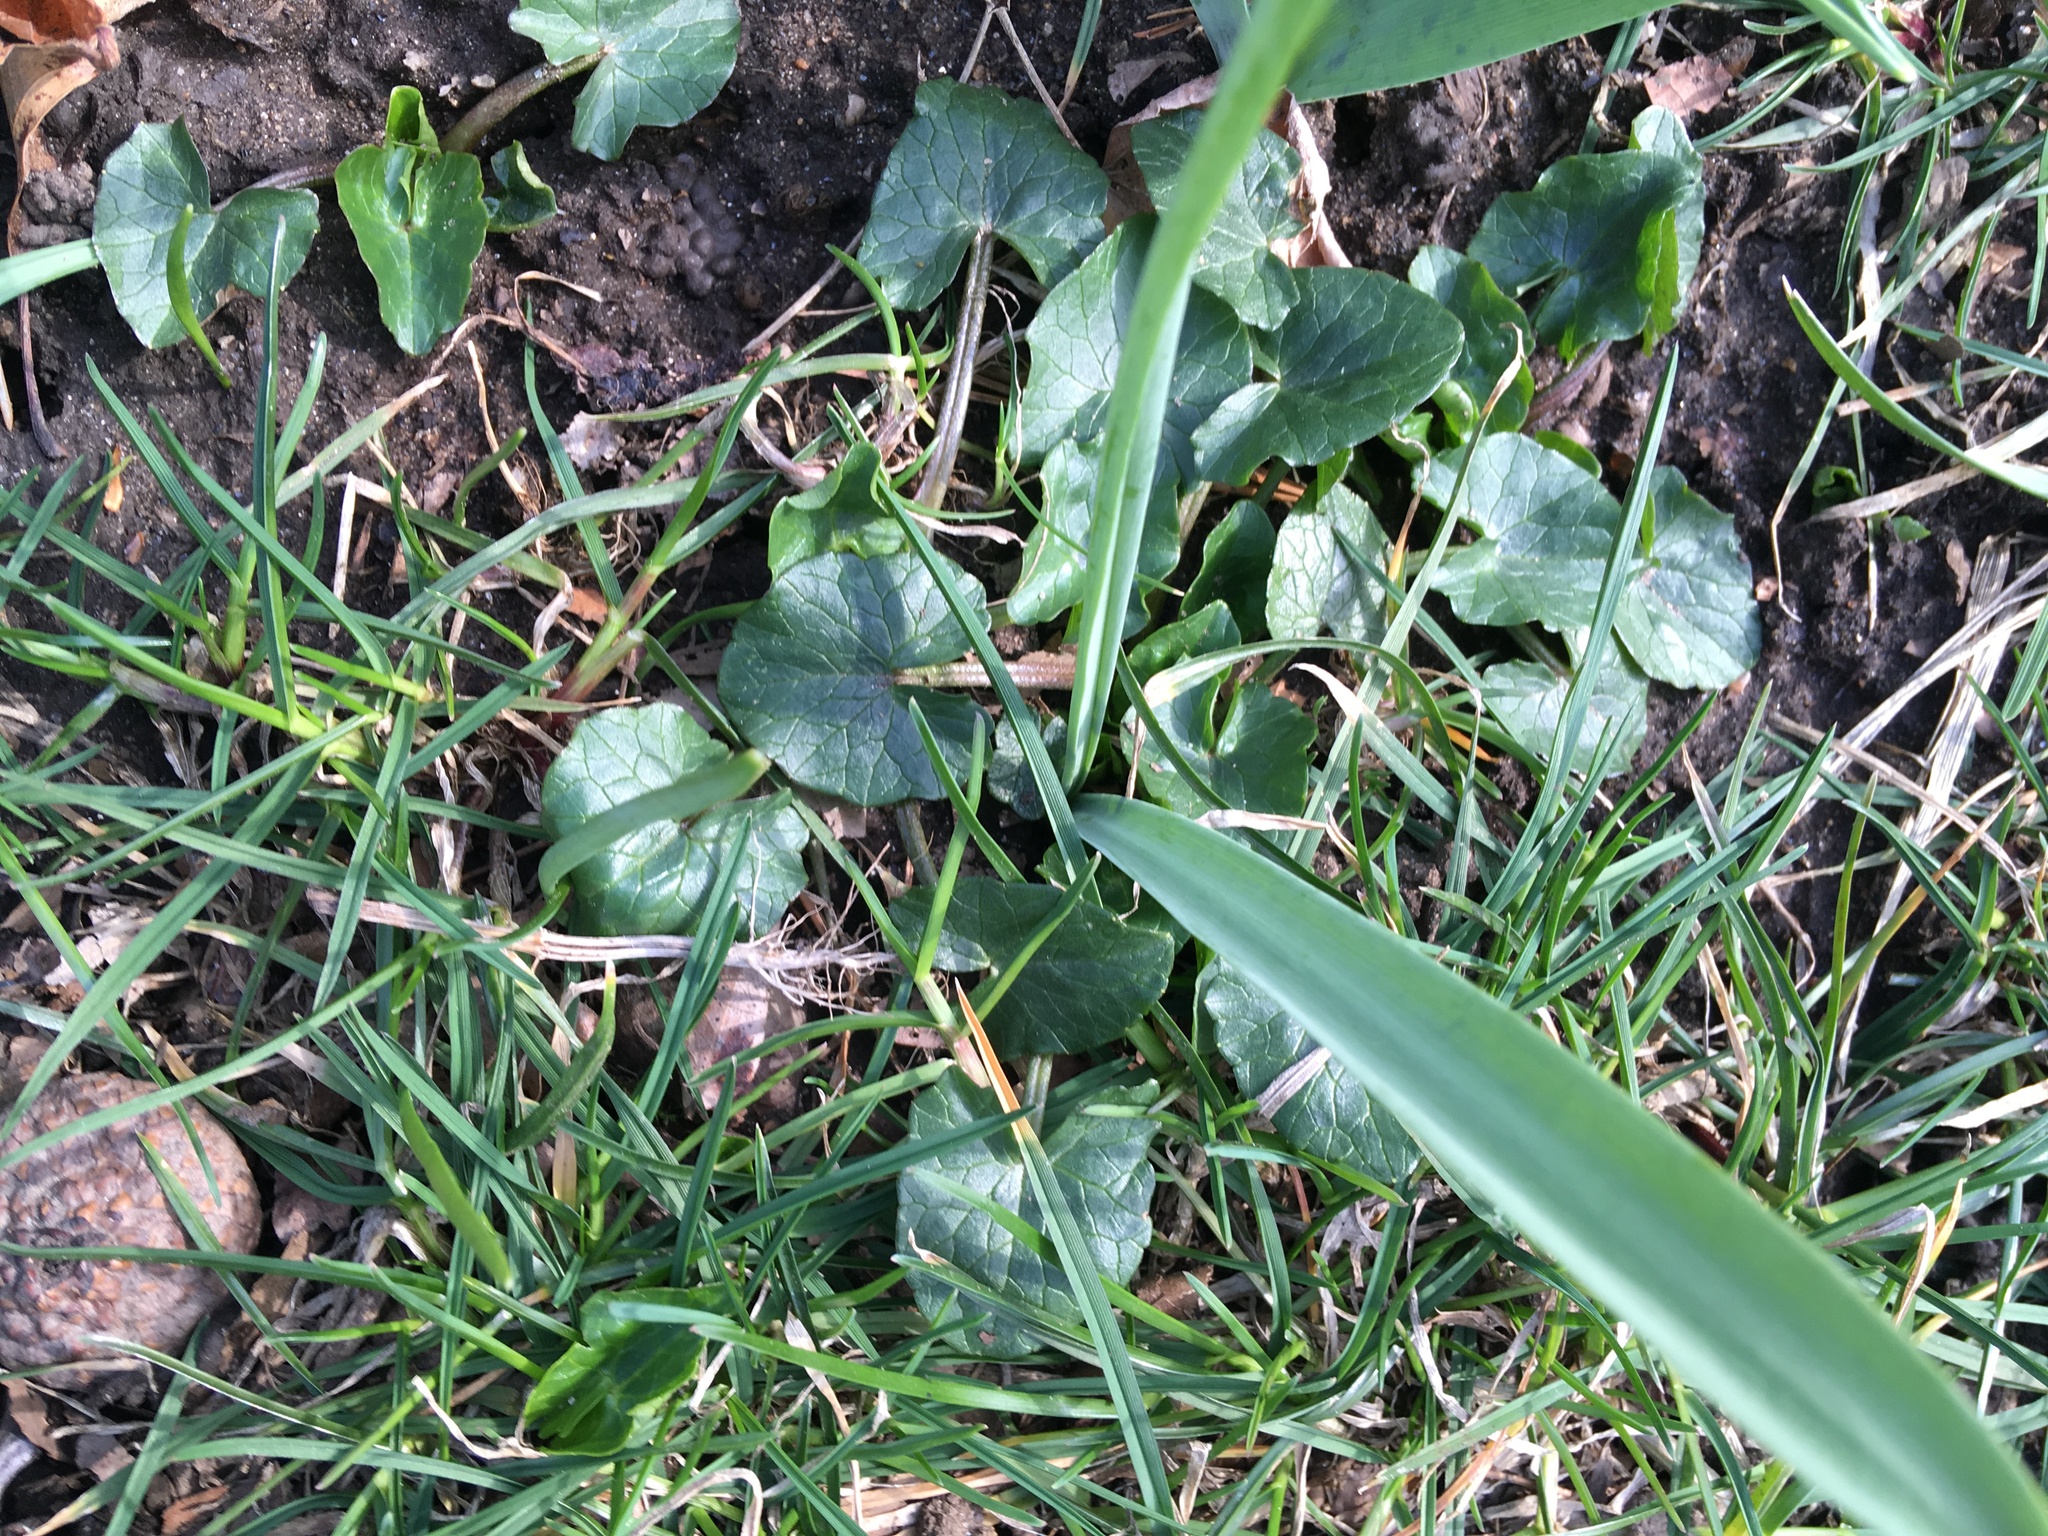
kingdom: Plantae
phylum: Tracheophyta
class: Magnoliopsida
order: Ranunculales
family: Ranunculaceae
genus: Ficaria
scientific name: Ficaria verna
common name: Lesser celandine
